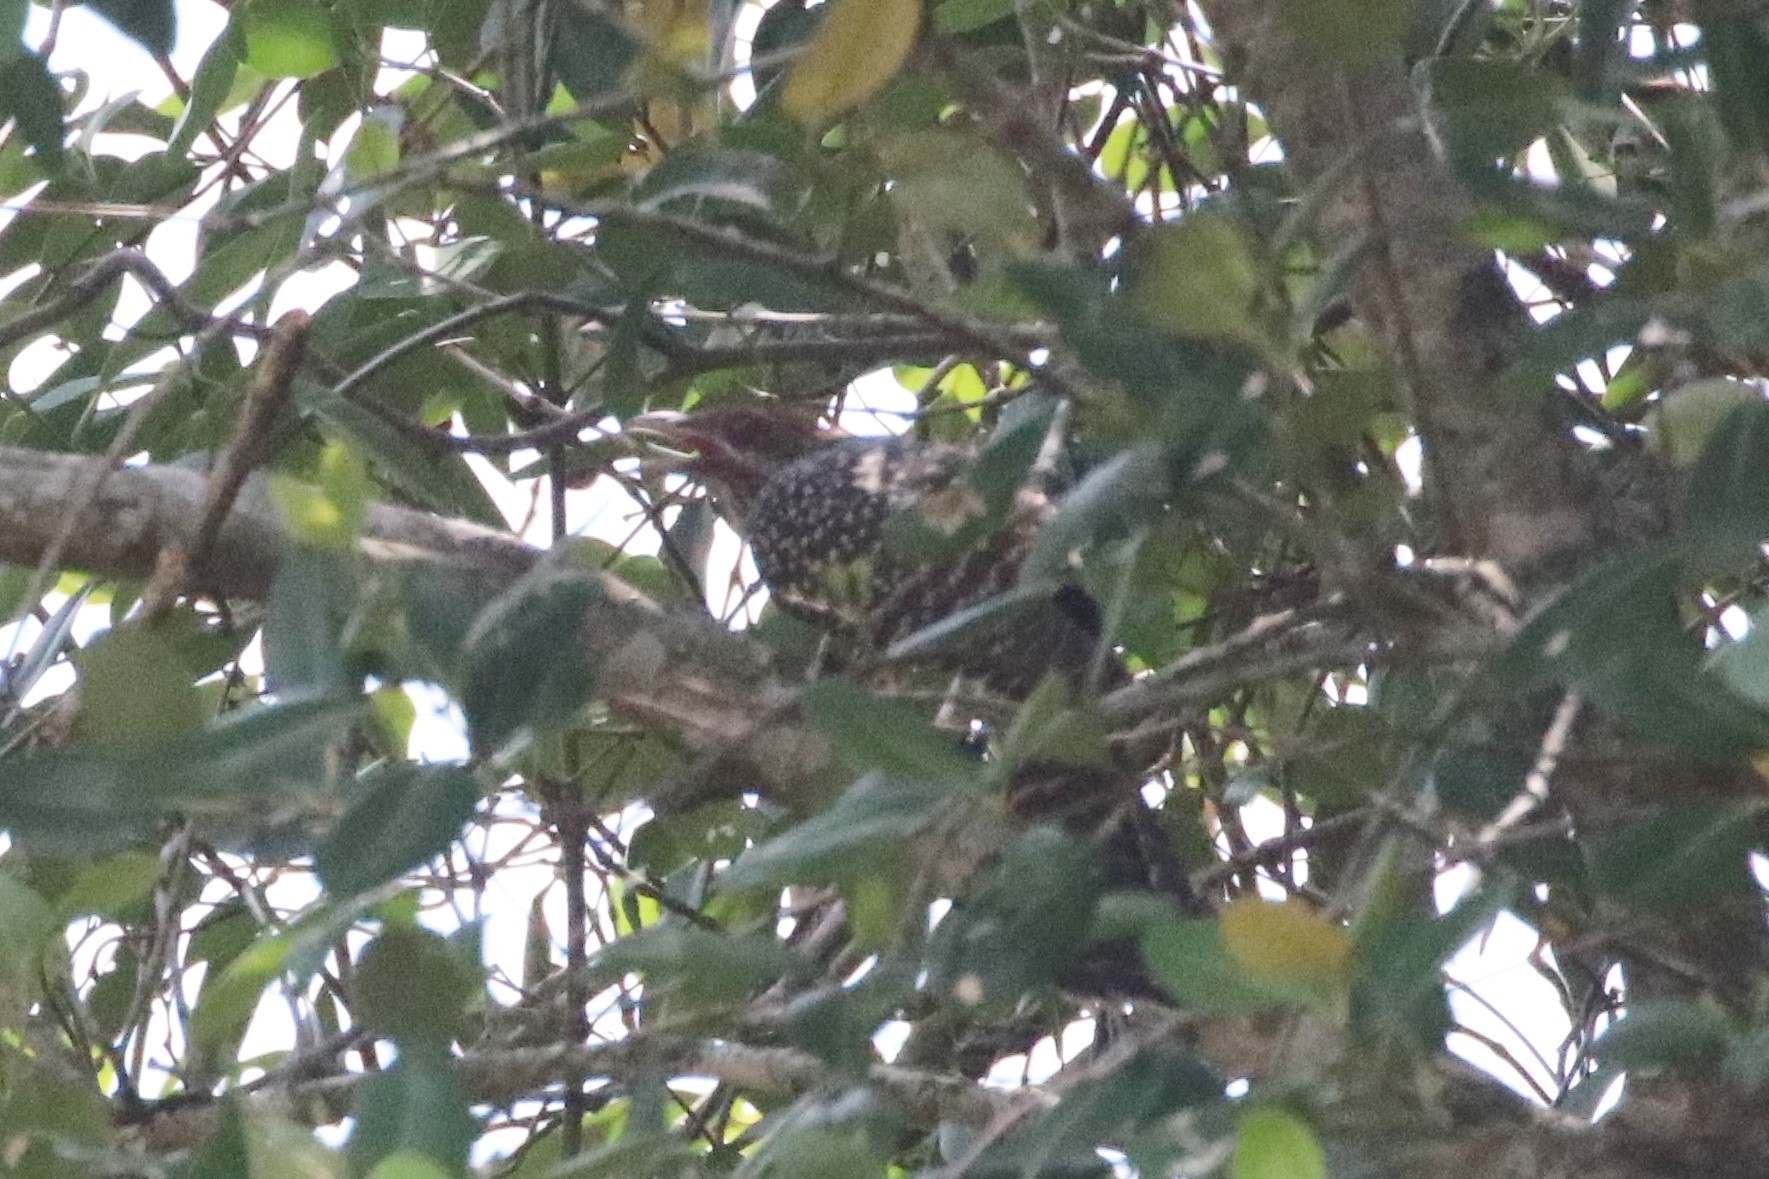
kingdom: Animalia
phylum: Chordata
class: Aves
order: Cuculiformes
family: Cuculidae
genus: Eudynamys
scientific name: Eudynamys scolopaceus
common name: Asian koel
